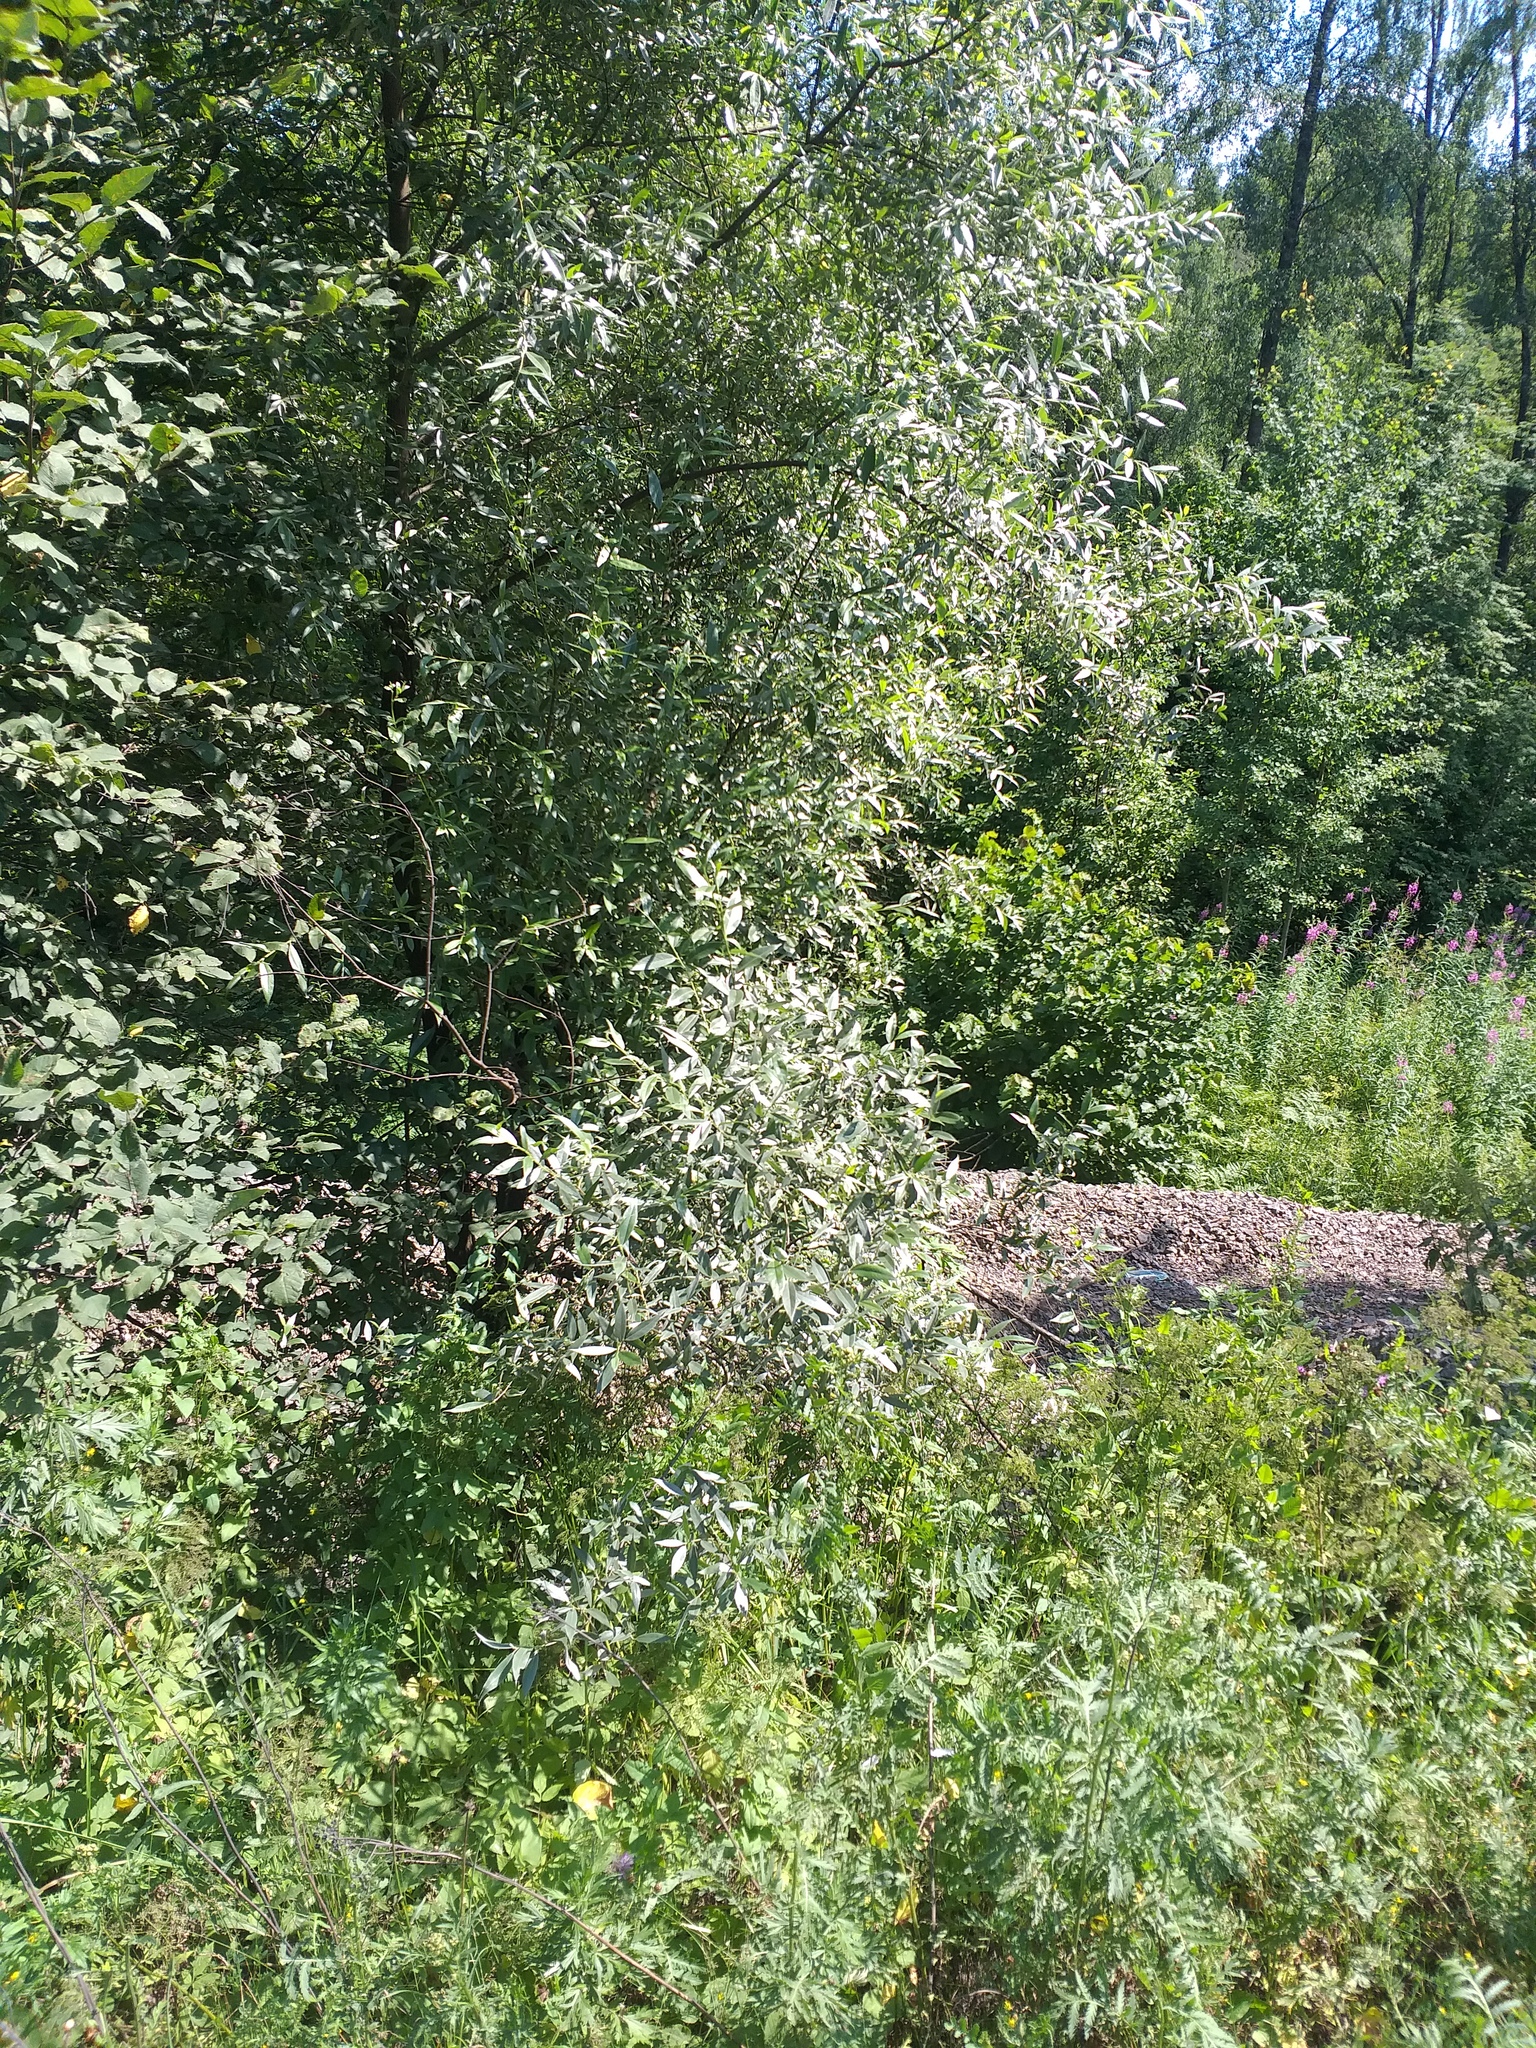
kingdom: Plantae
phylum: Tracheophyta
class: Magnoliopsida
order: Malpighiales
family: Salicaceae
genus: Salix
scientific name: Salix alba
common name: White willow
